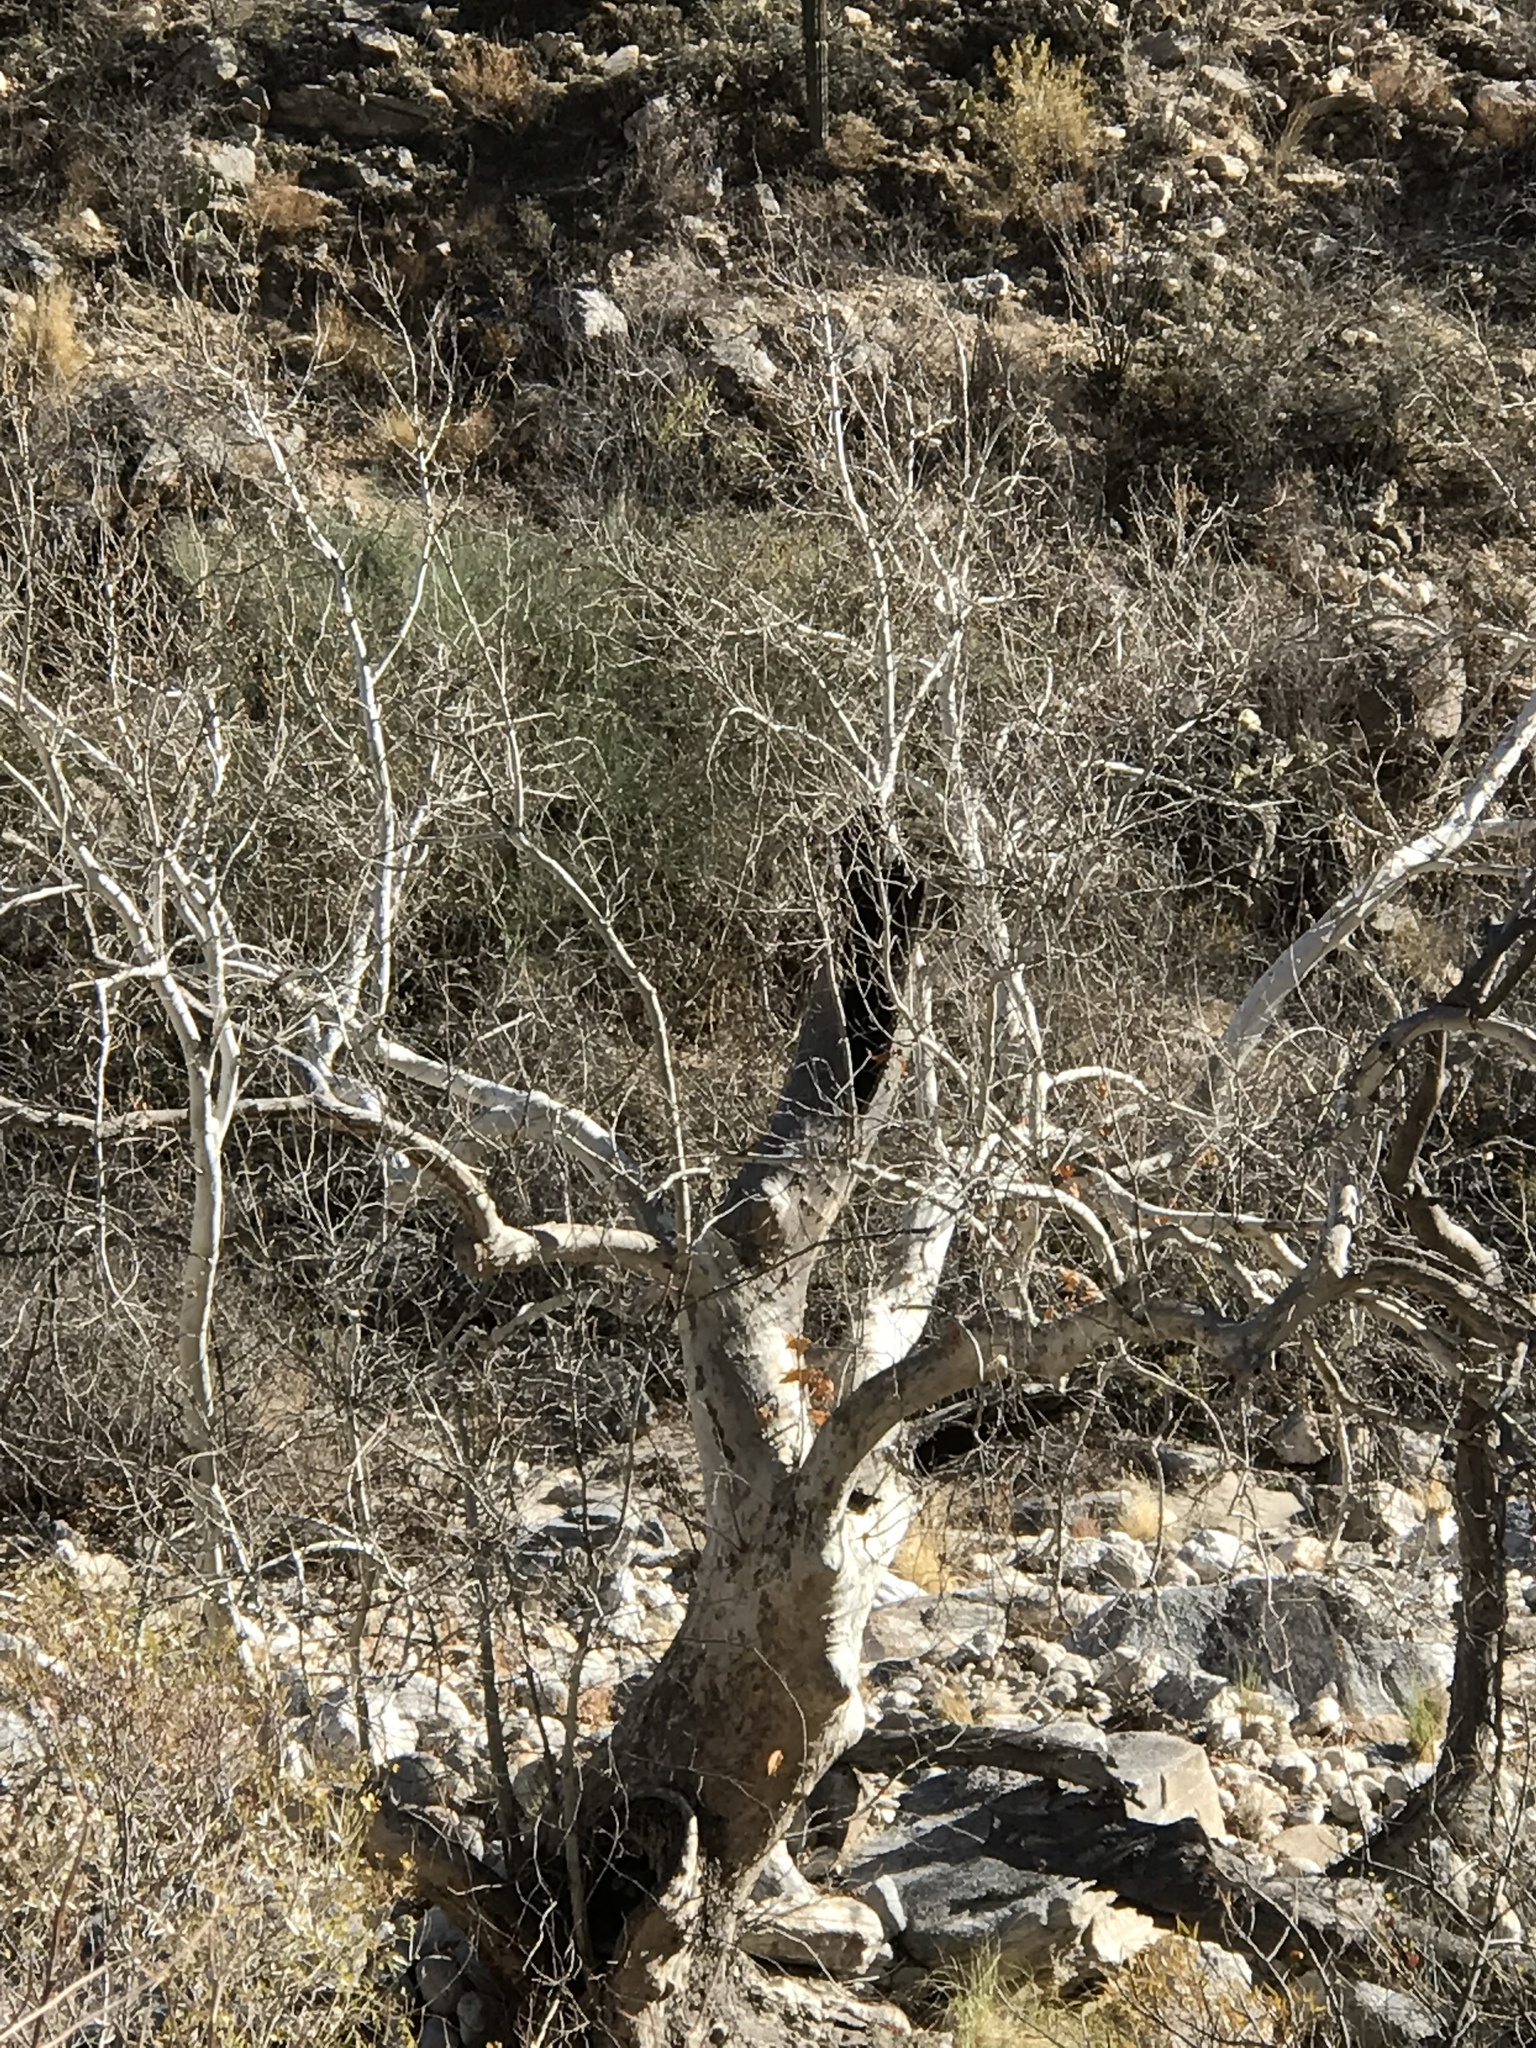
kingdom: Plantae
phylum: Tracheophyta
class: Magnoliopsida
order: Proteales
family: Platanaceae
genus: Platanus
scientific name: Platanus wrightii
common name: Arizona sycamore
